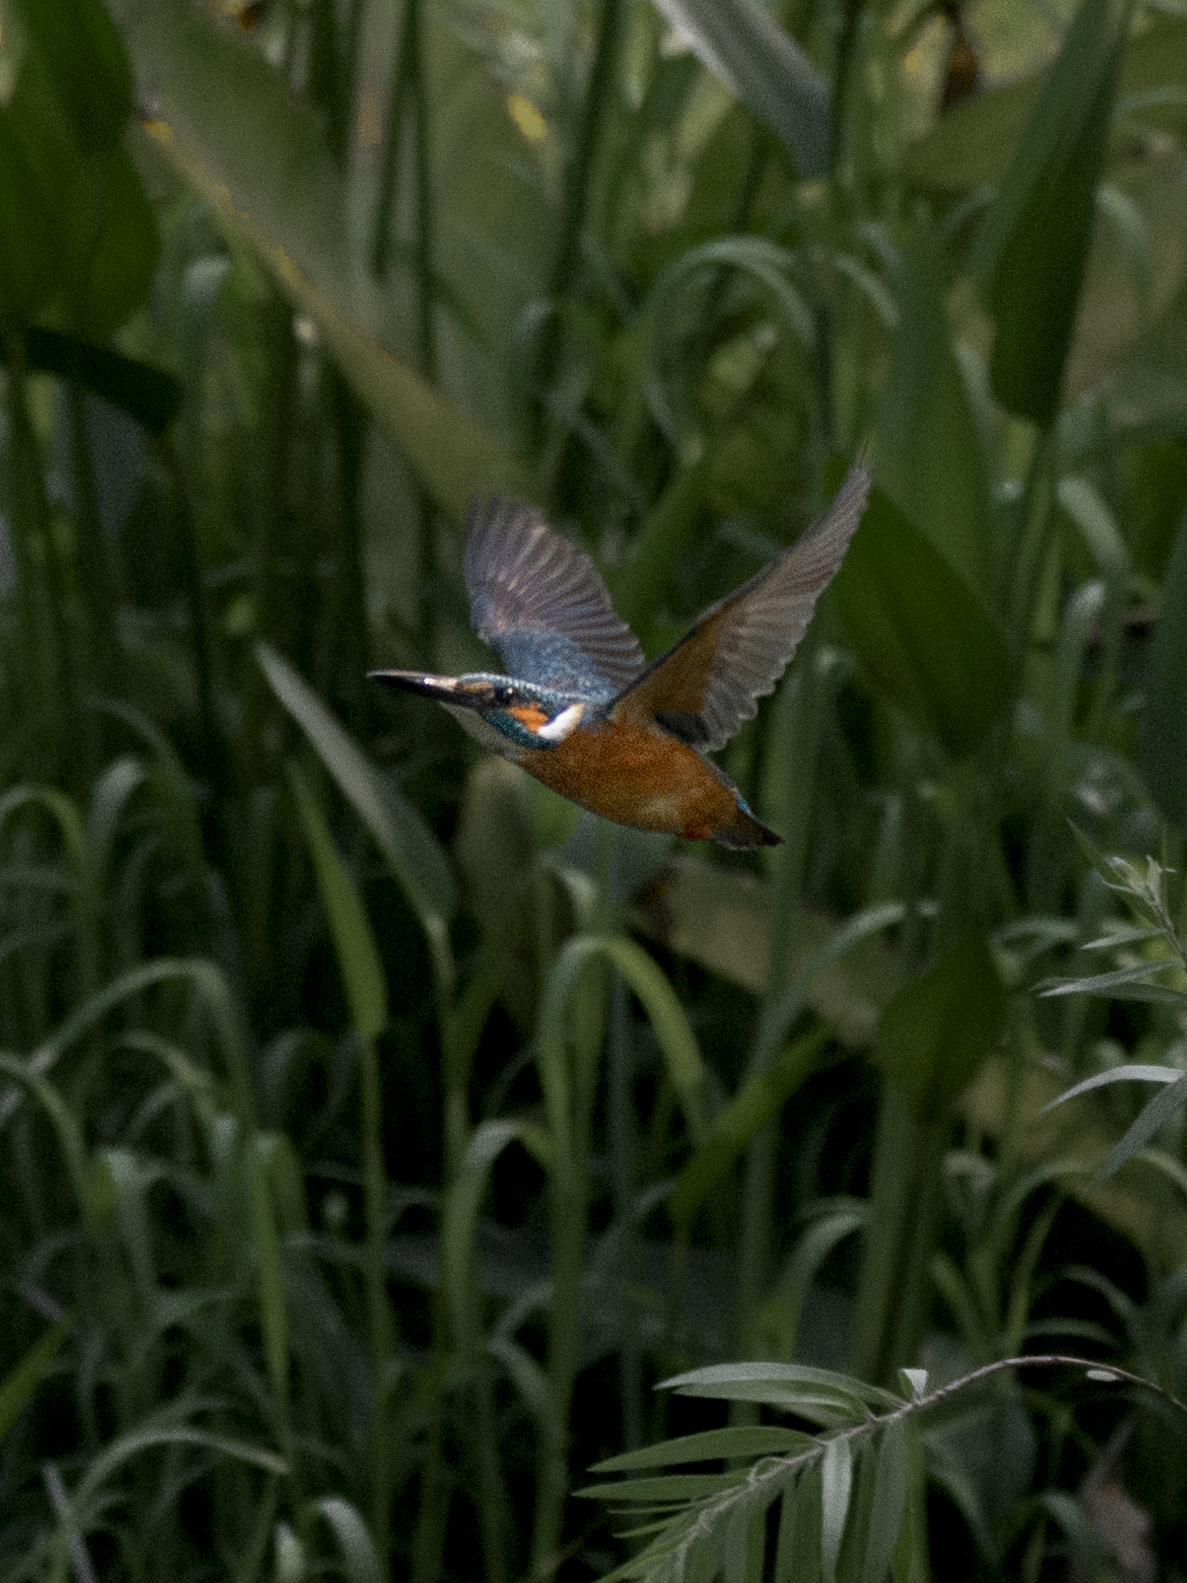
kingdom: Animalia
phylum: Chordata
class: Aves
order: Coraciiformes
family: Alcedinidae
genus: Alcedo
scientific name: Alcedo atthis
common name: Common kingfisher
